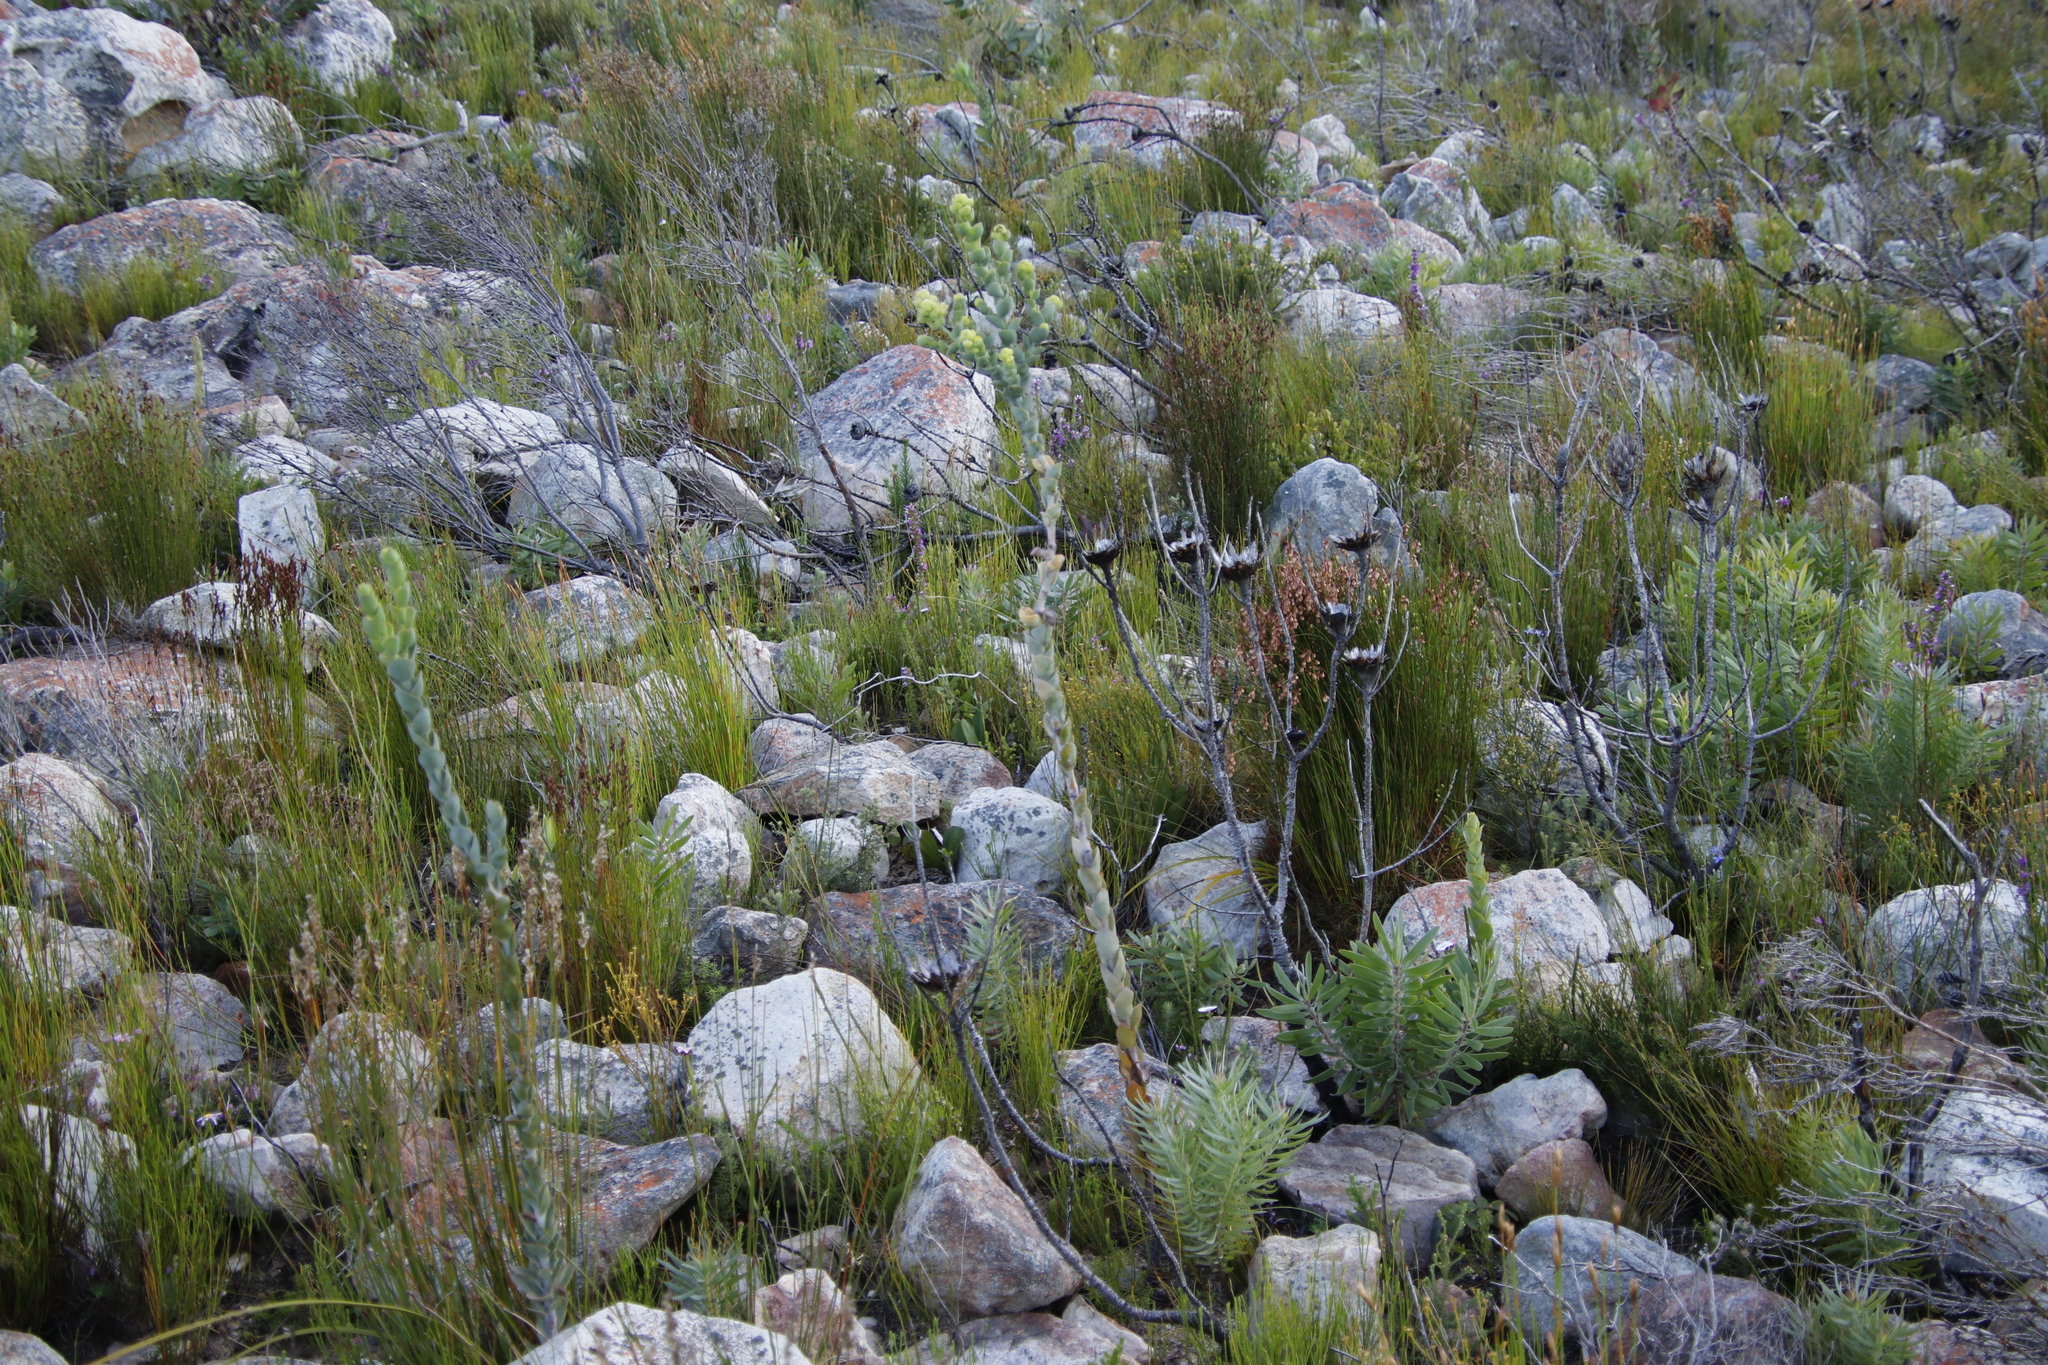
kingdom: Plantae
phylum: Tracheophyta
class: Magnoliopsida
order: Santalales
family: Thesiaceae
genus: Thesium
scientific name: Thesium euphorbioides
